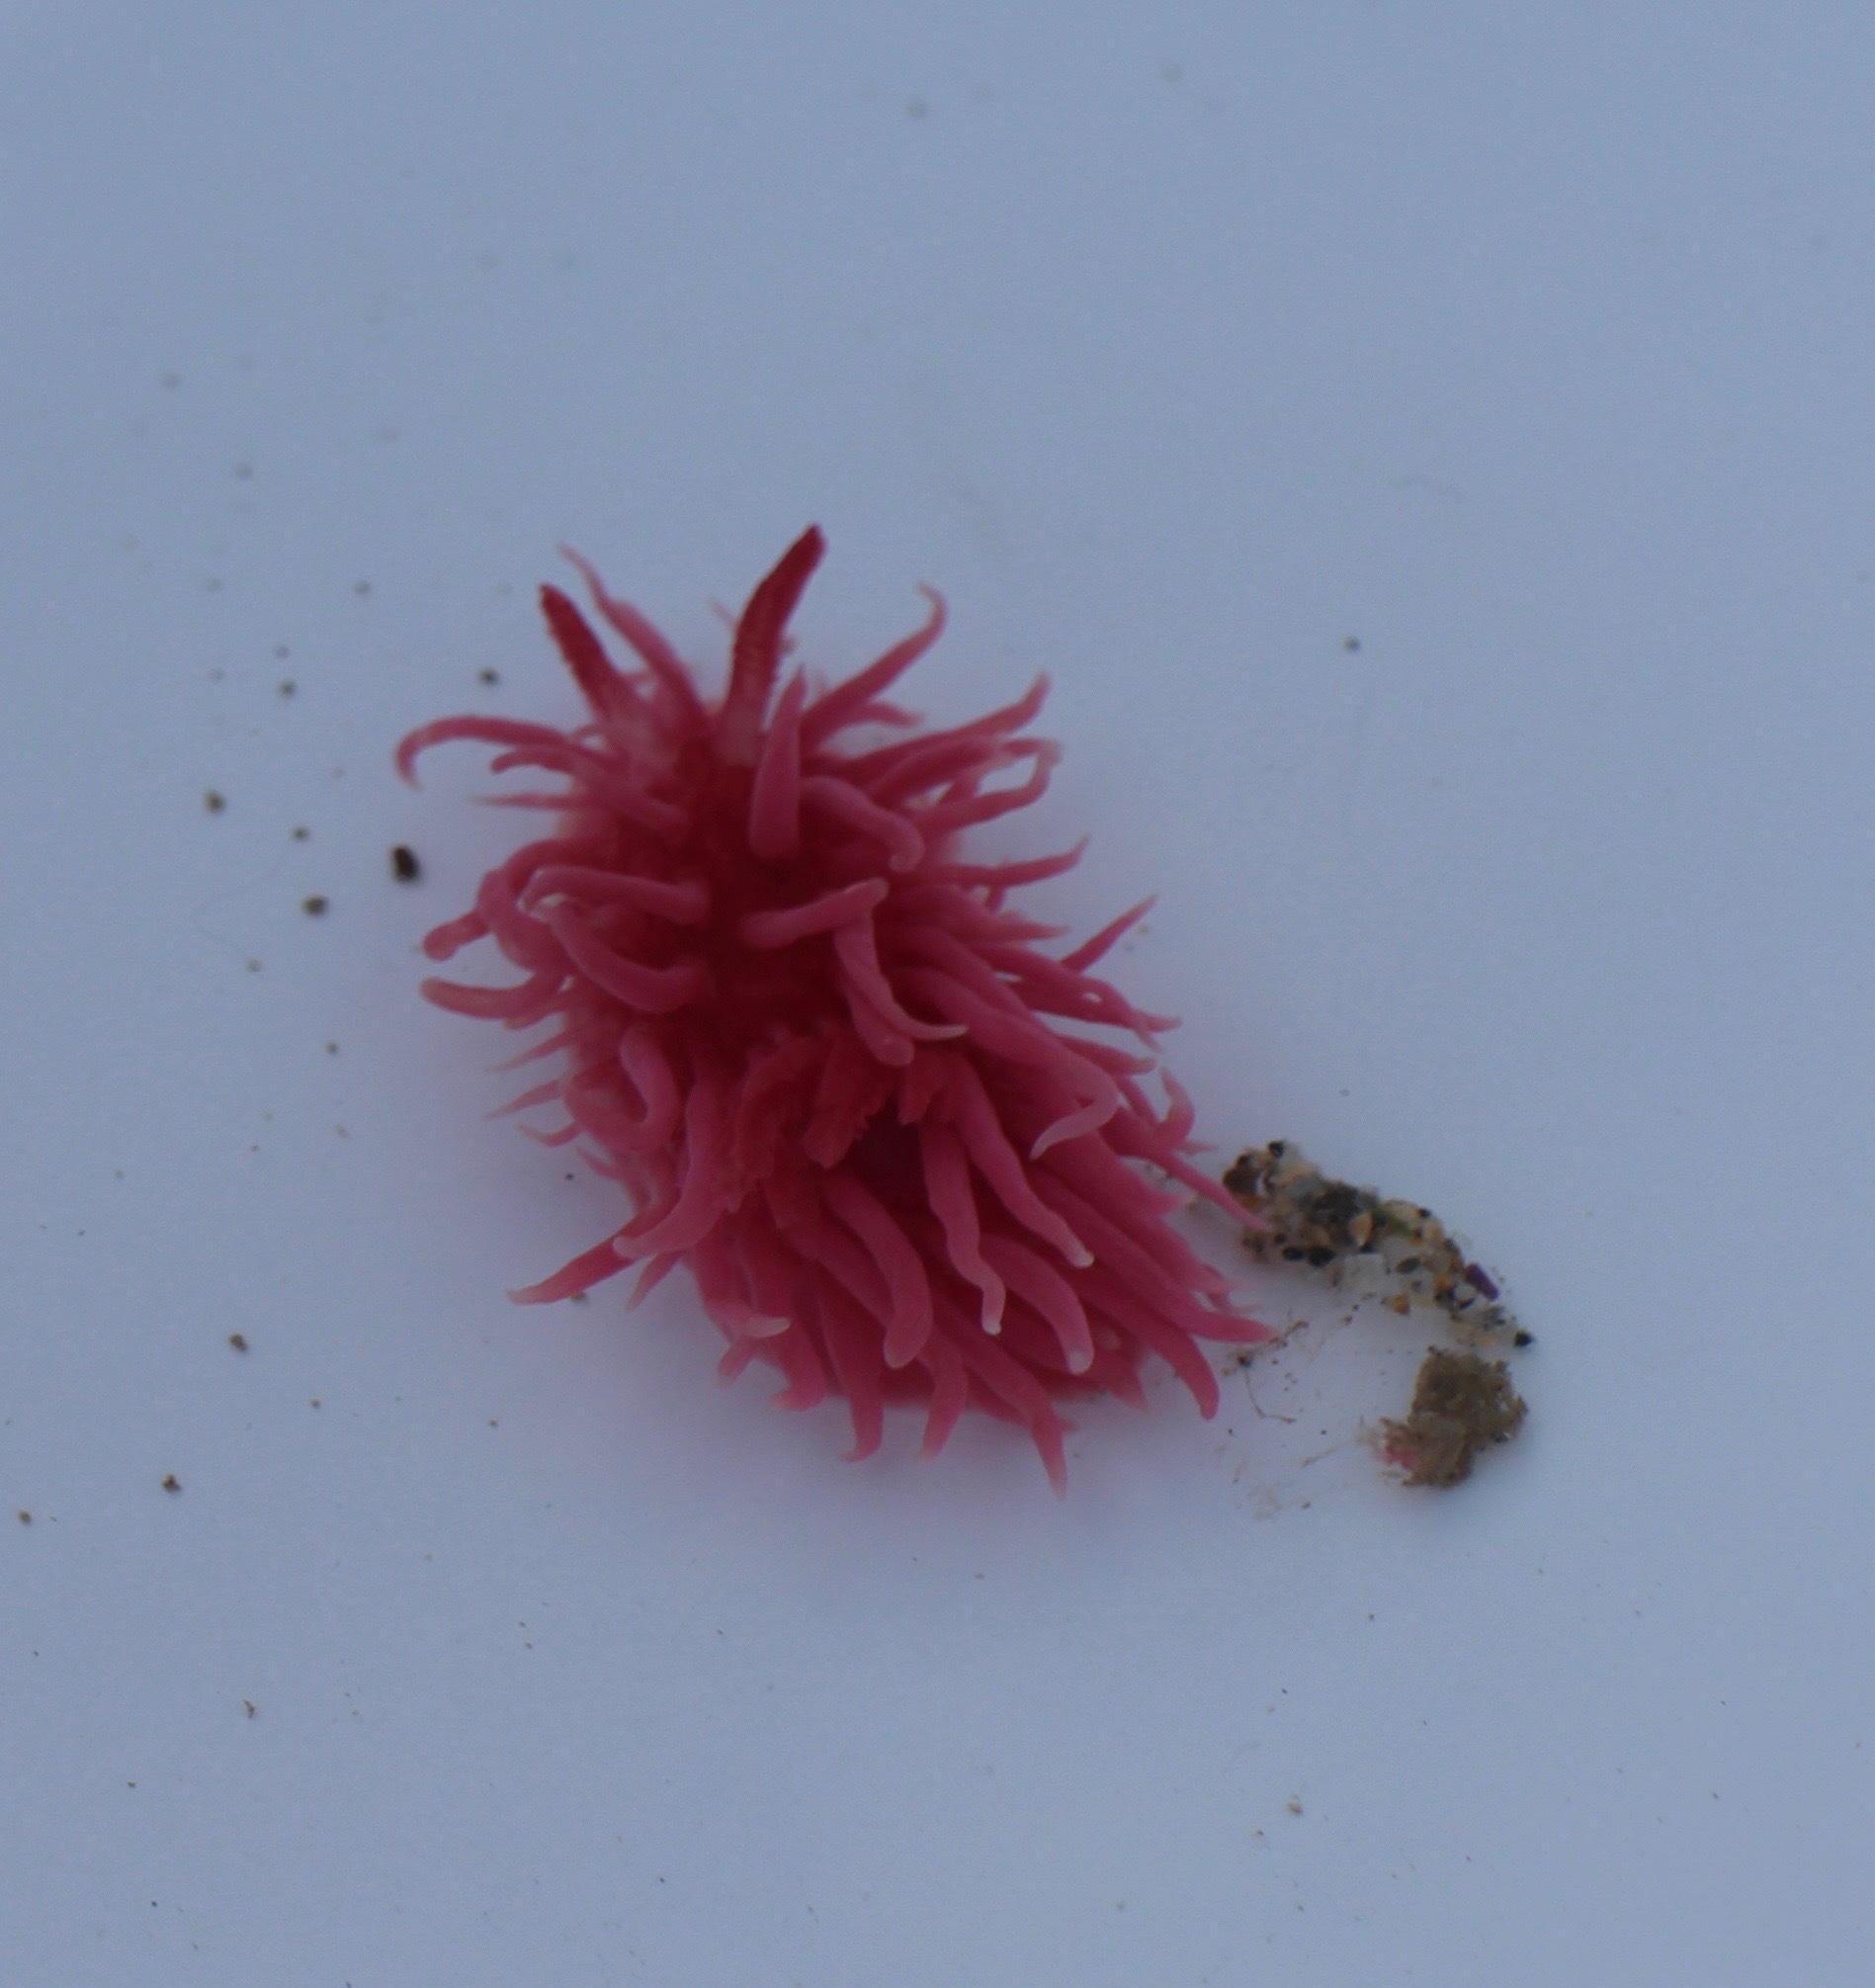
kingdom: Animalia
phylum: Mollusca
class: Gastropoda
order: Nudibranchia
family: Goniodorididae
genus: Okenia
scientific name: Okenia
